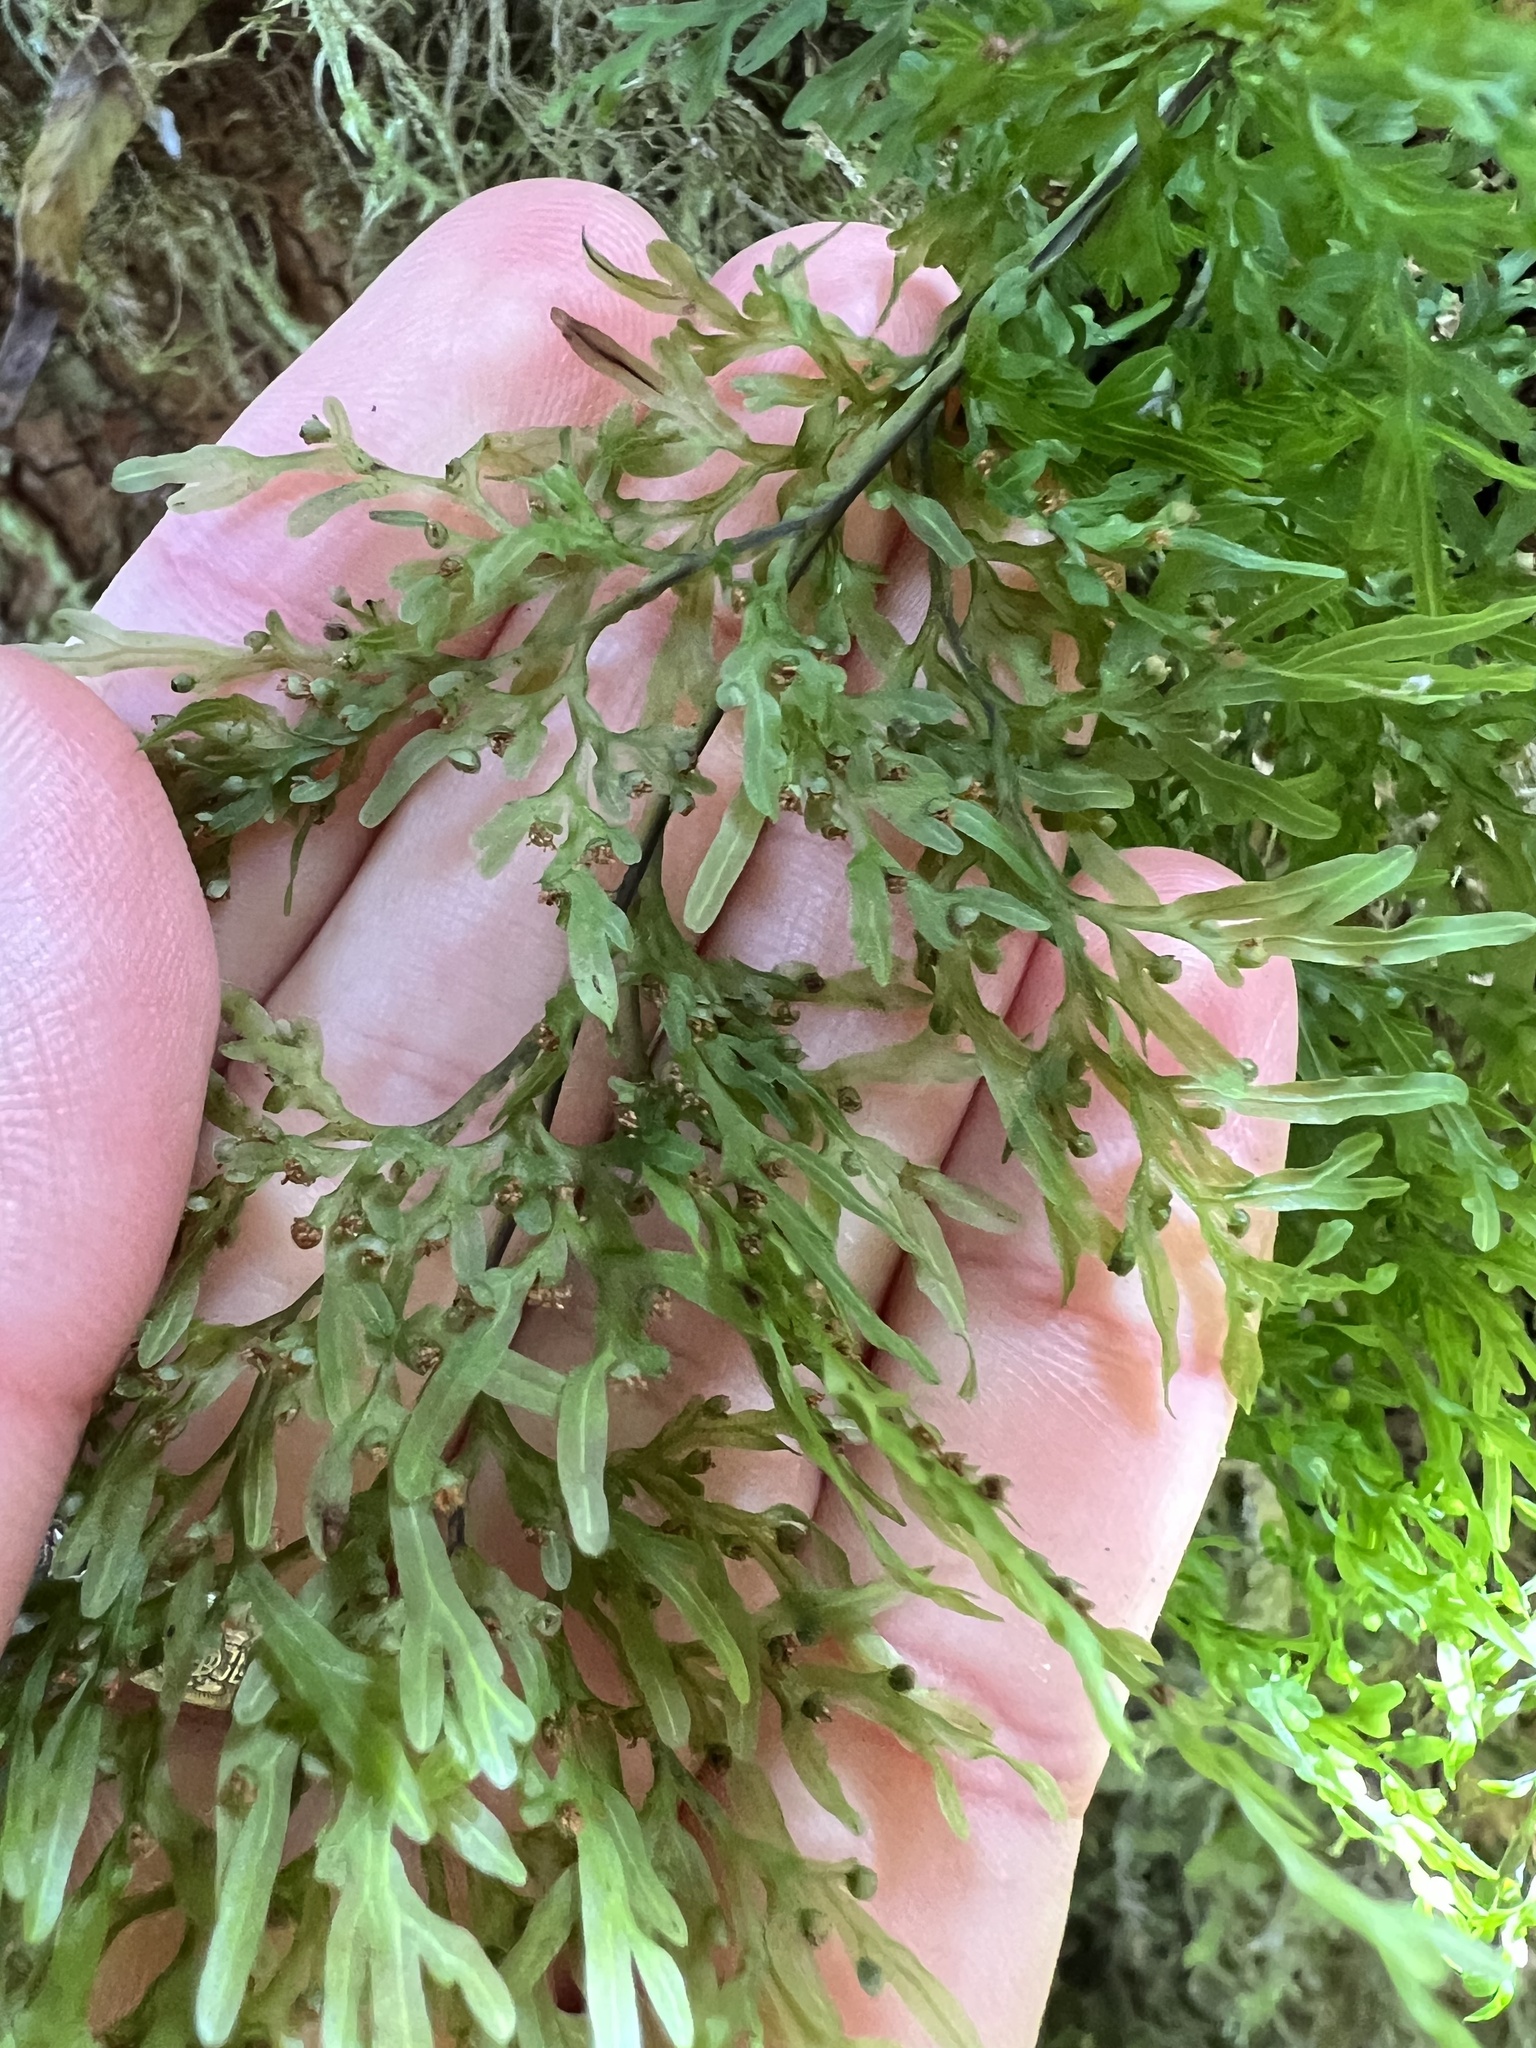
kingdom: Plantae
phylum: Tracheophyta
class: Polypodiopsida
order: Hymenophyllales
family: Hymenophyllaceae
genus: Hymenophyllum
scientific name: Hymenophyllum pulcherrimum
